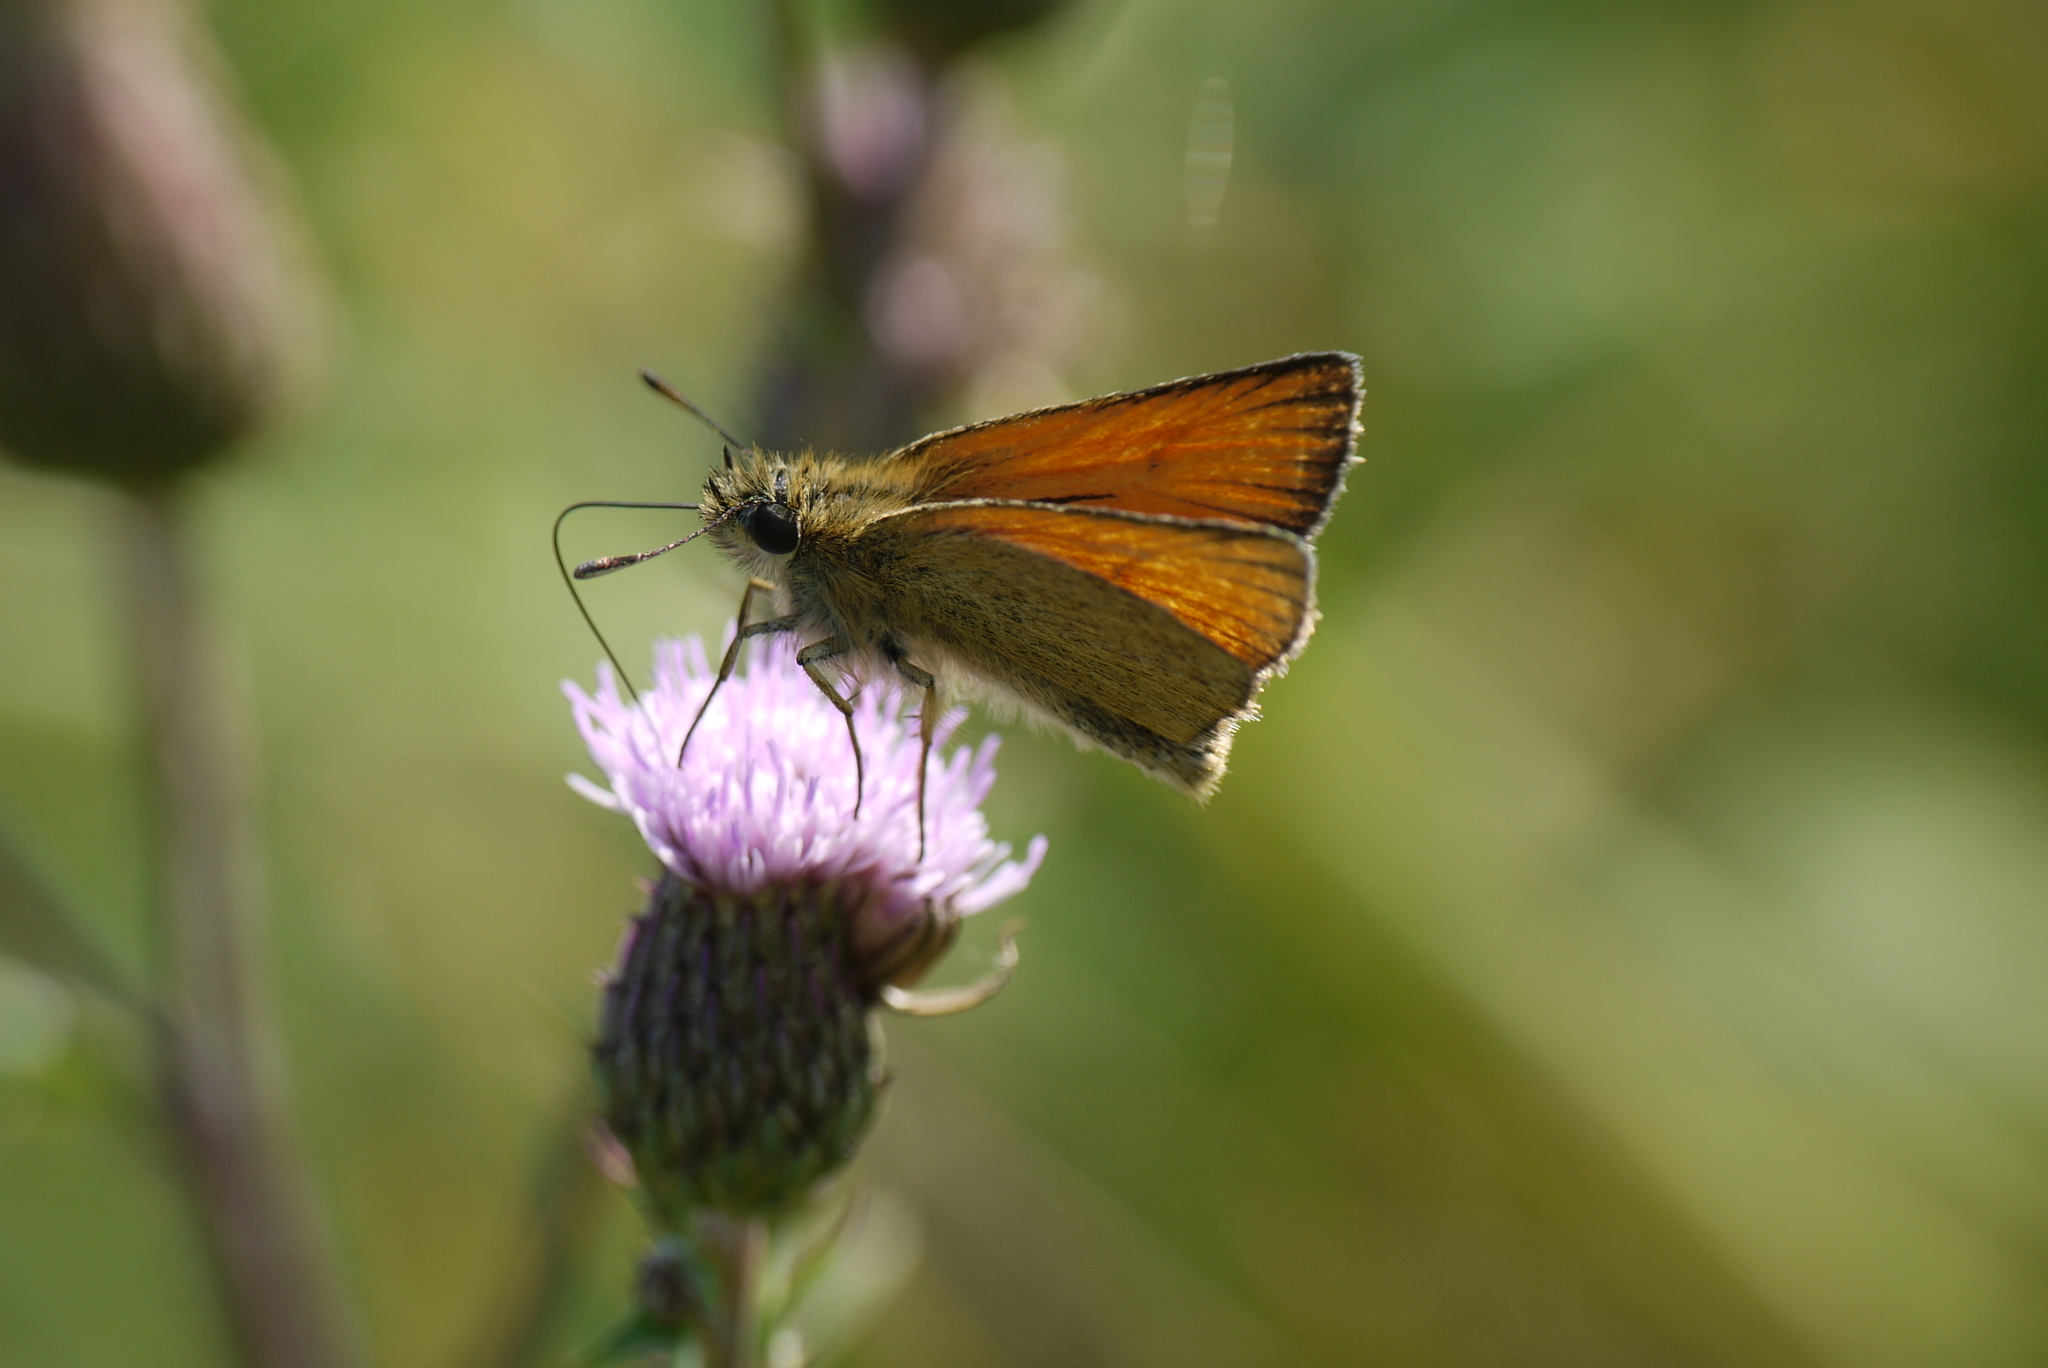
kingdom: Animalia
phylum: Arthropoda
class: Insecta
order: Lepidoptera
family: Hesperiidae
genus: Thymelicus
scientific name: Thymelicus lineola
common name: Essex skipper
